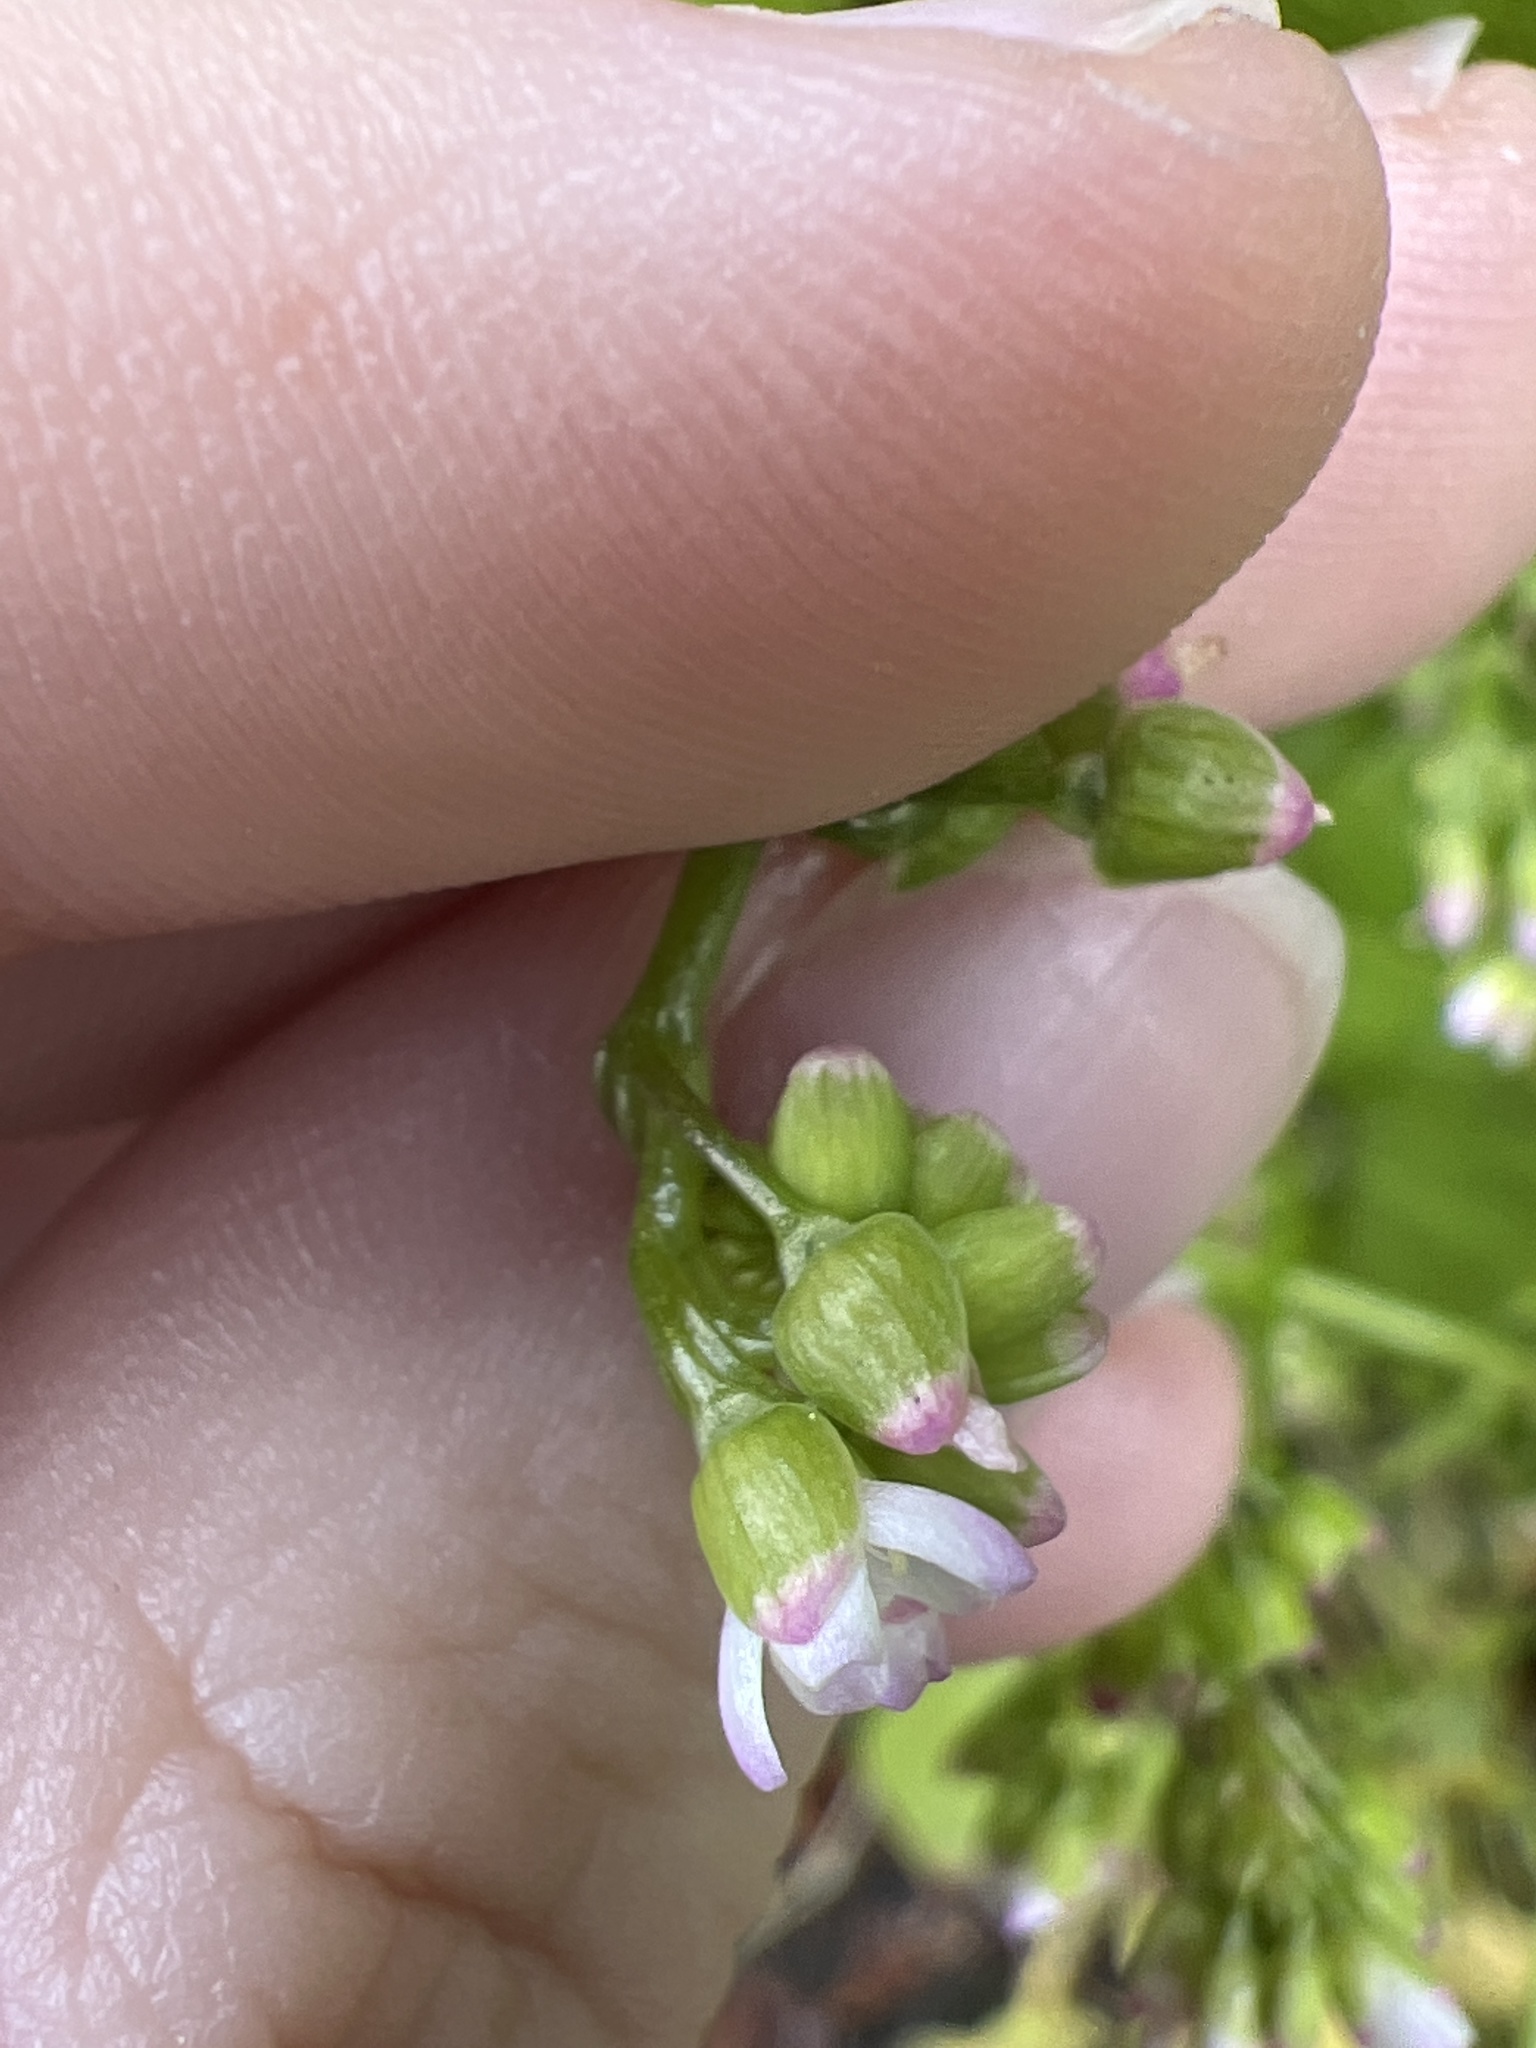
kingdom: Plantae
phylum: Tracheophyta
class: Magnoliopsida
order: Caryophyllales
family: Montiaceae
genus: Claytonia
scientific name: Claytonia perfoliata
